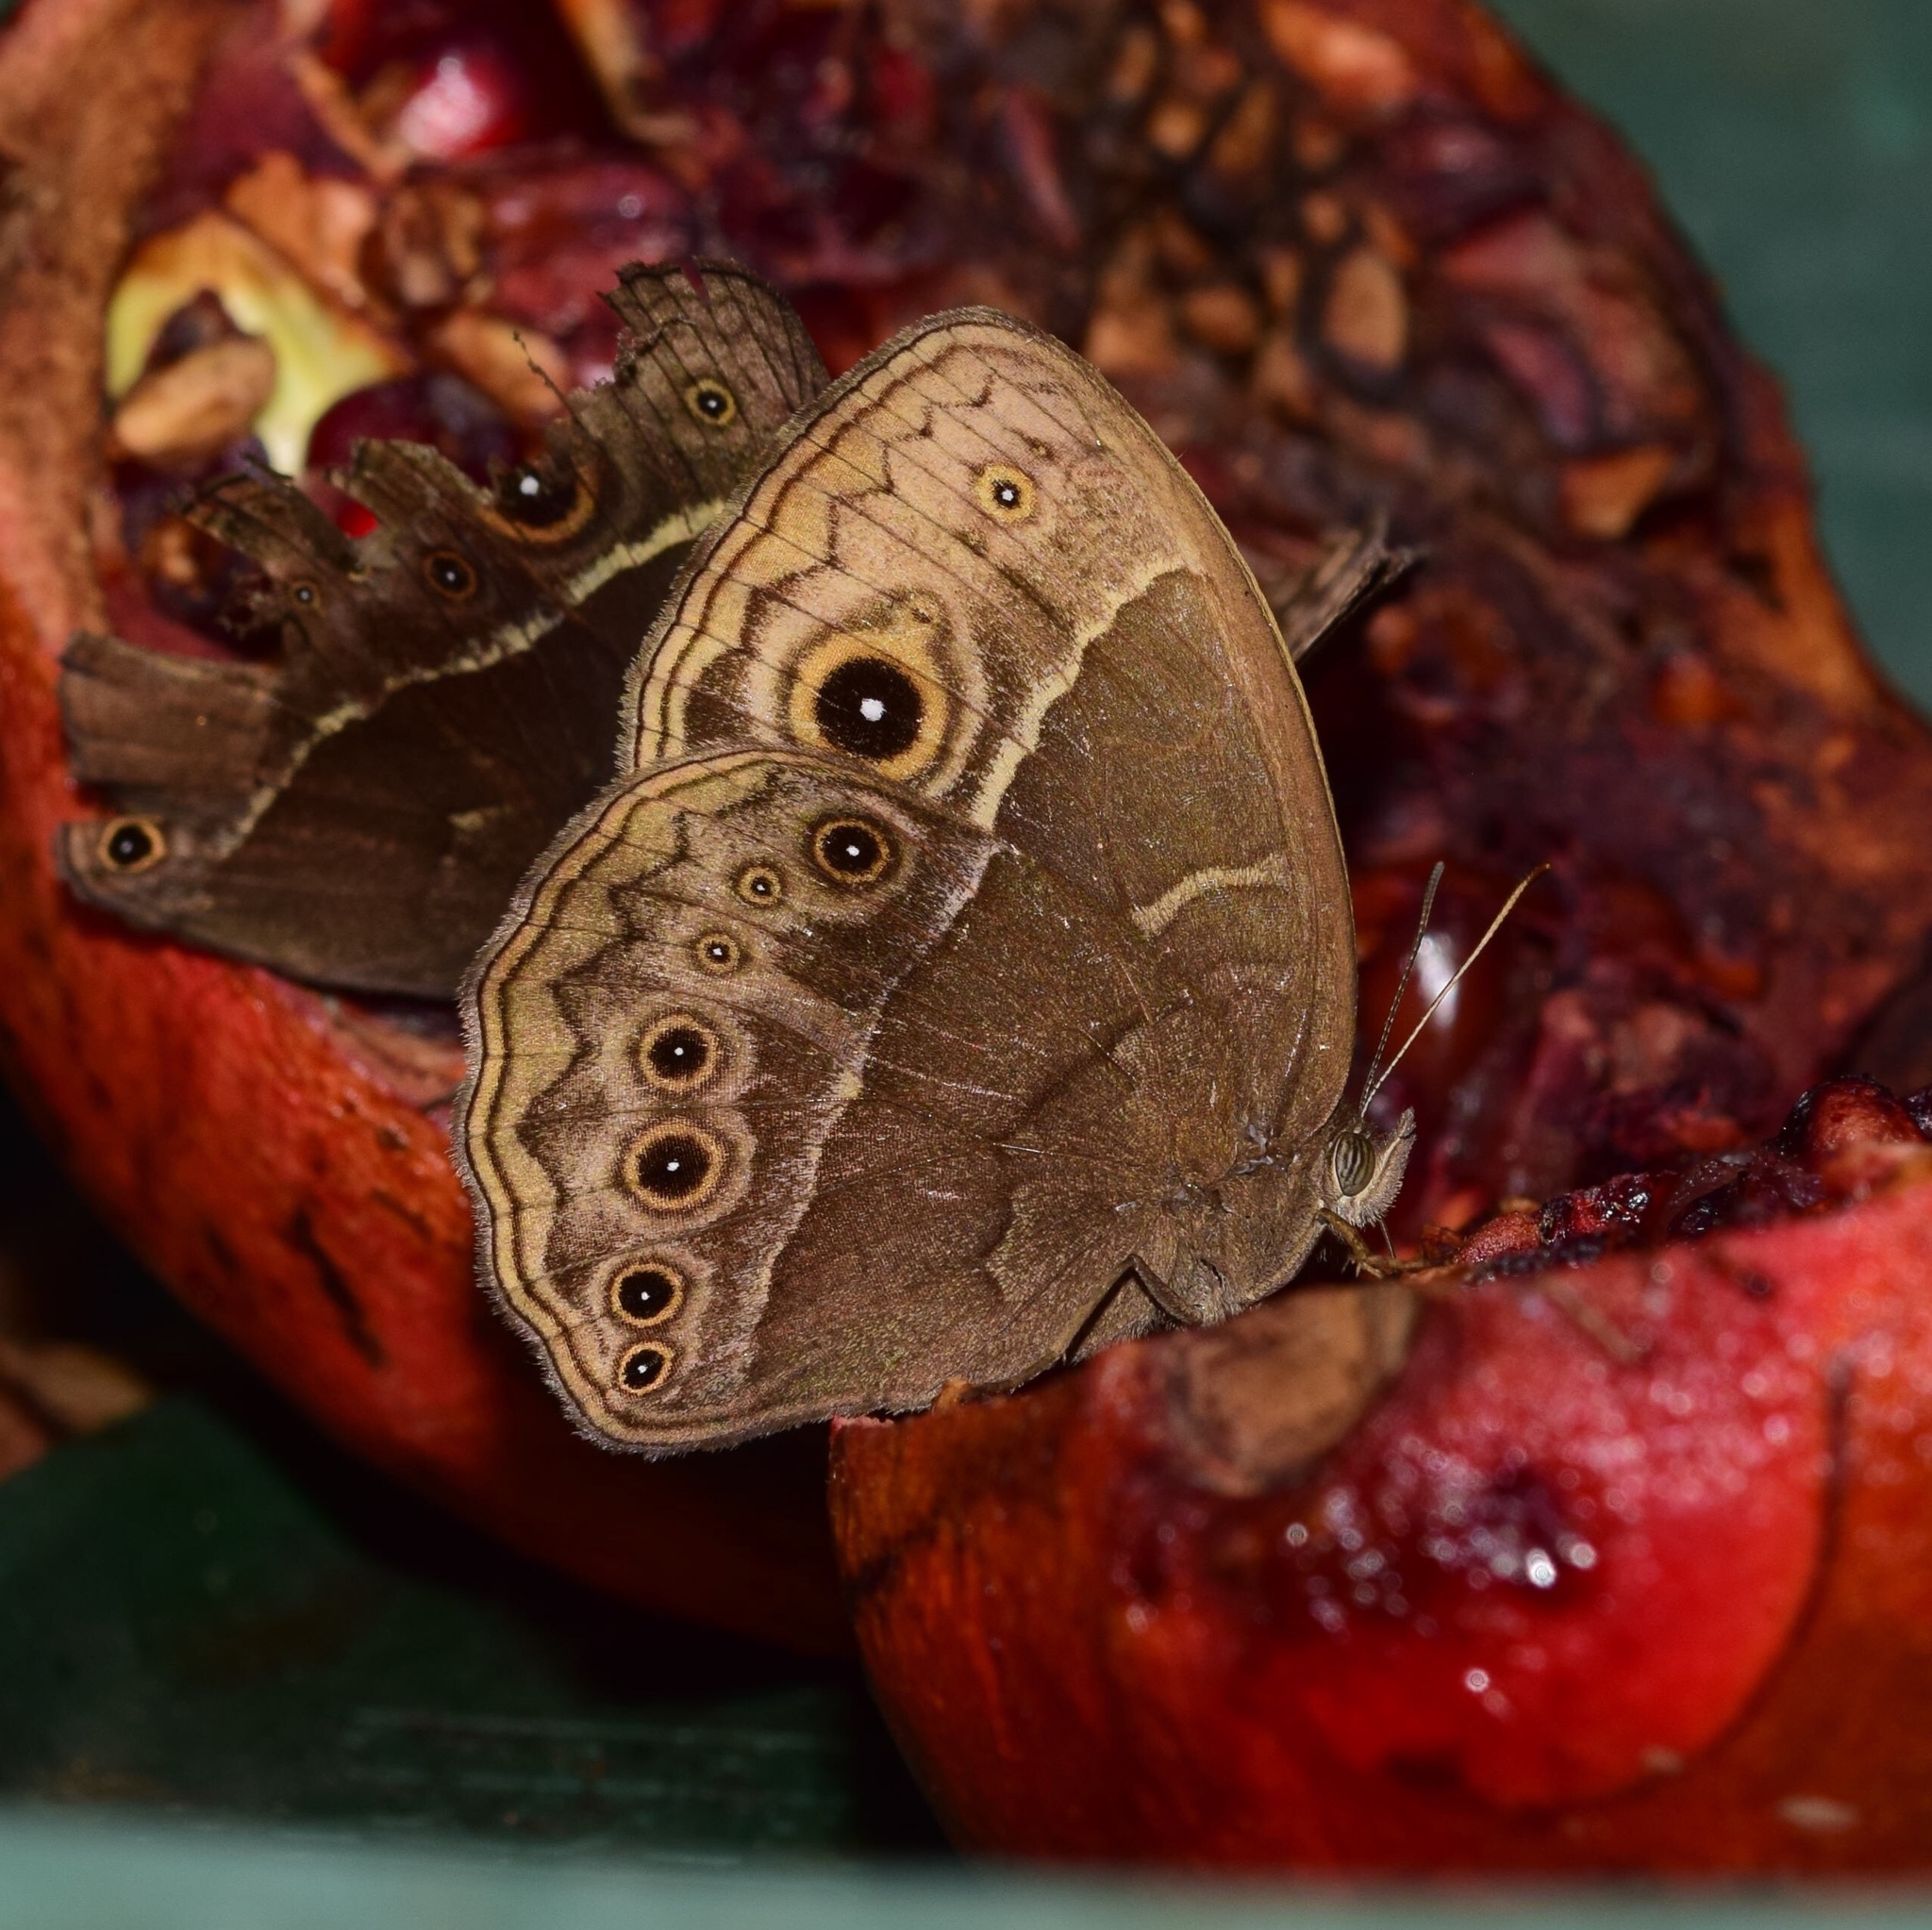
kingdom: Animalia
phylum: Arthropoda
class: Insecta
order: Lepidoptera
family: Nymphalidae
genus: Mycalesis
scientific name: Mycalesis rhacotis
